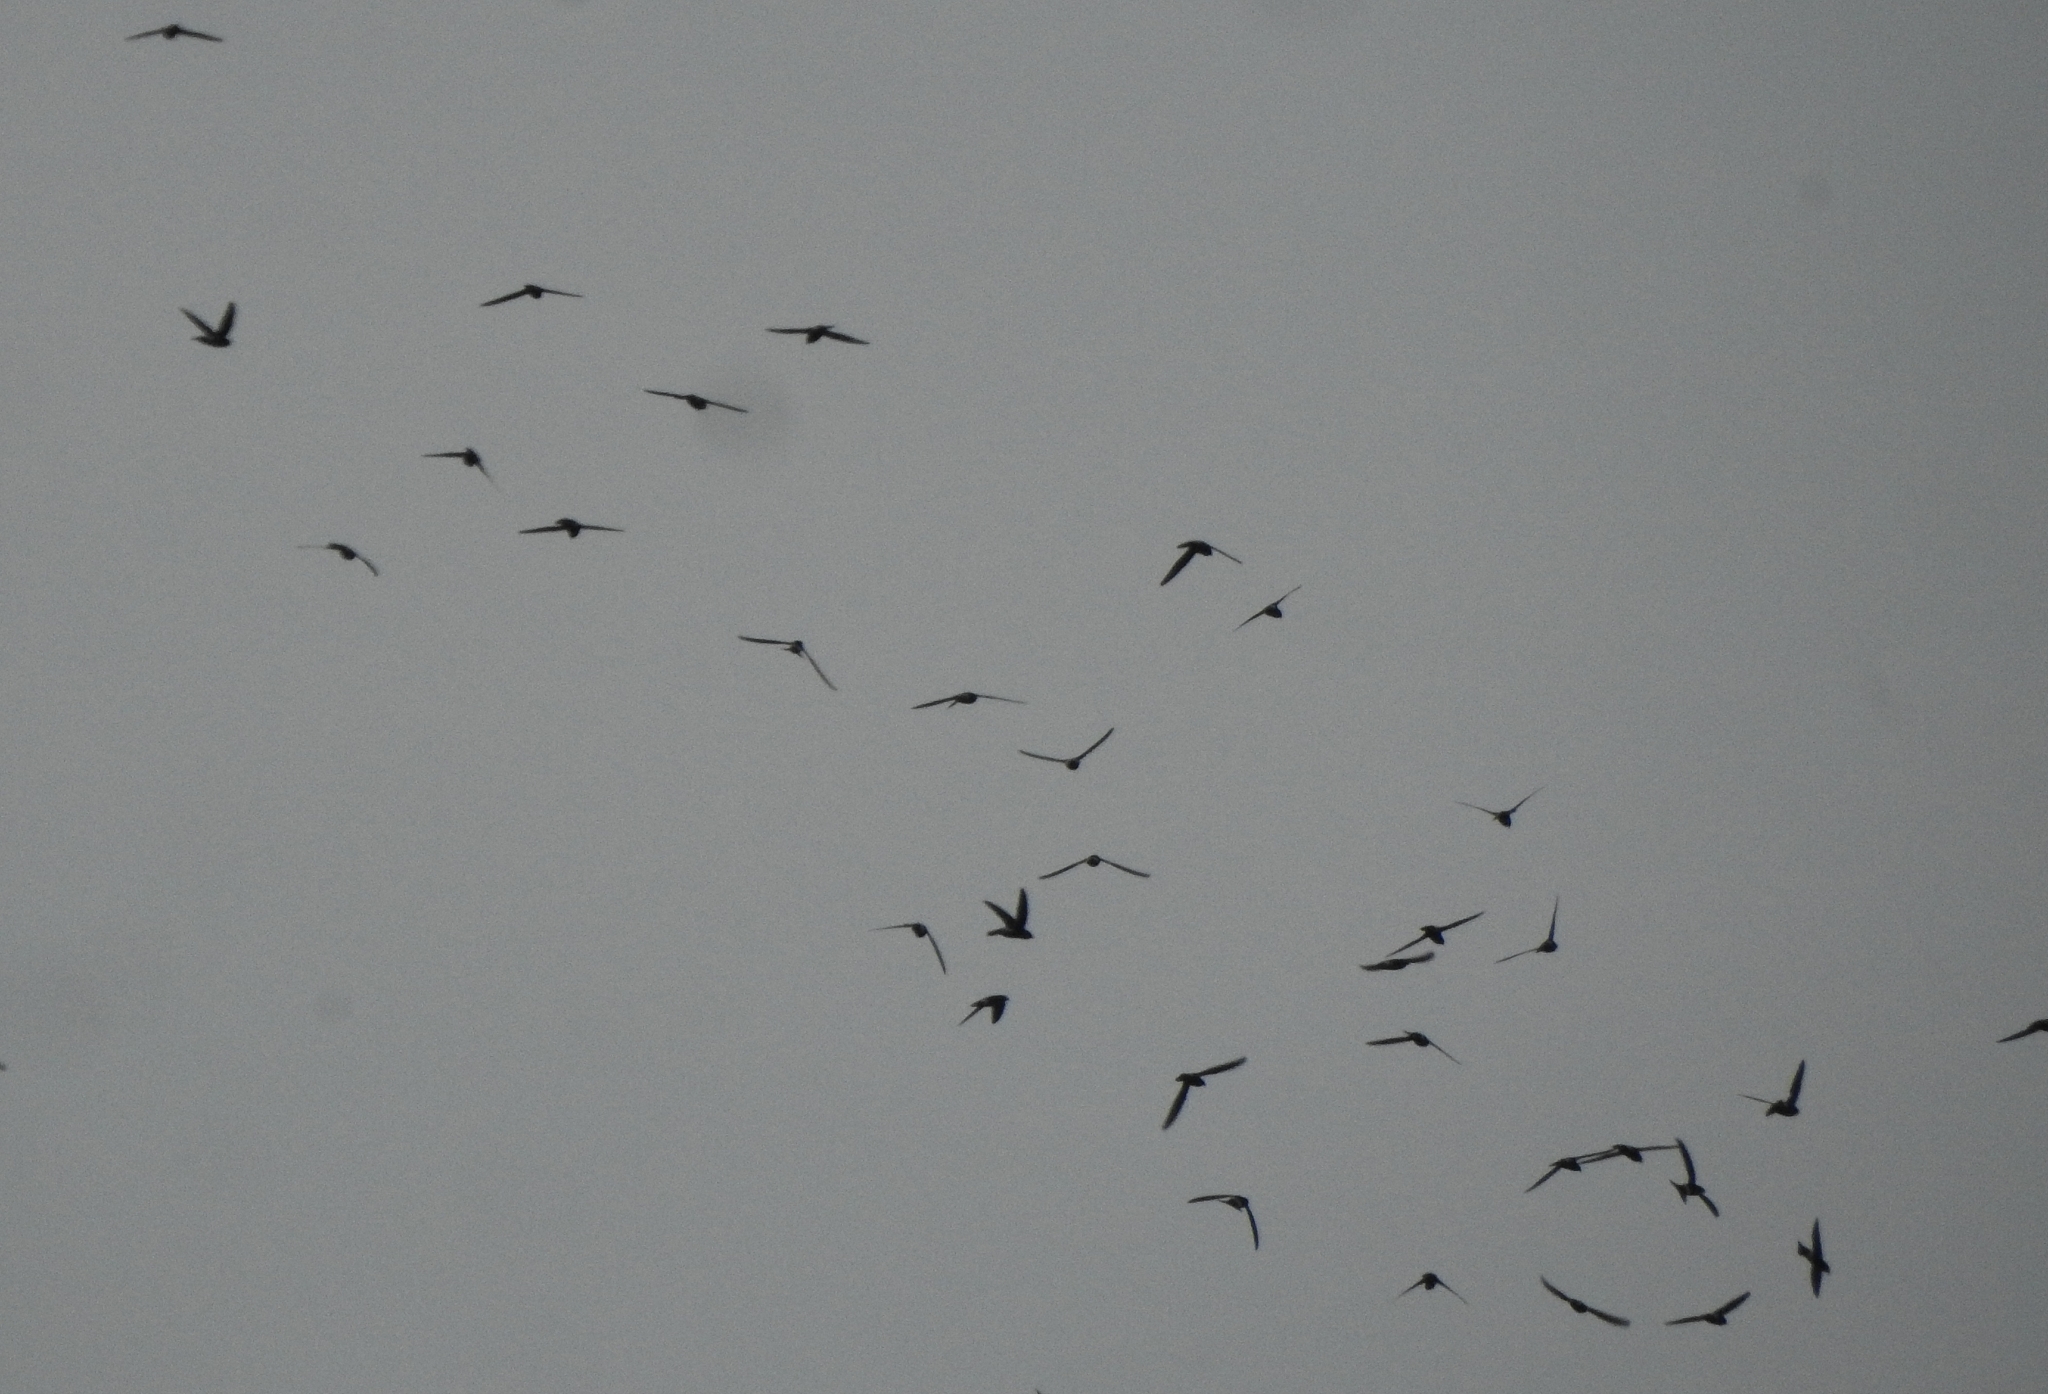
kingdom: Animalia
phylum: Chordata
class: Aves
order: Apodiformes
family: Apodidae
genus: Apus
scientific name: Apus affinis
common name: Little swift
